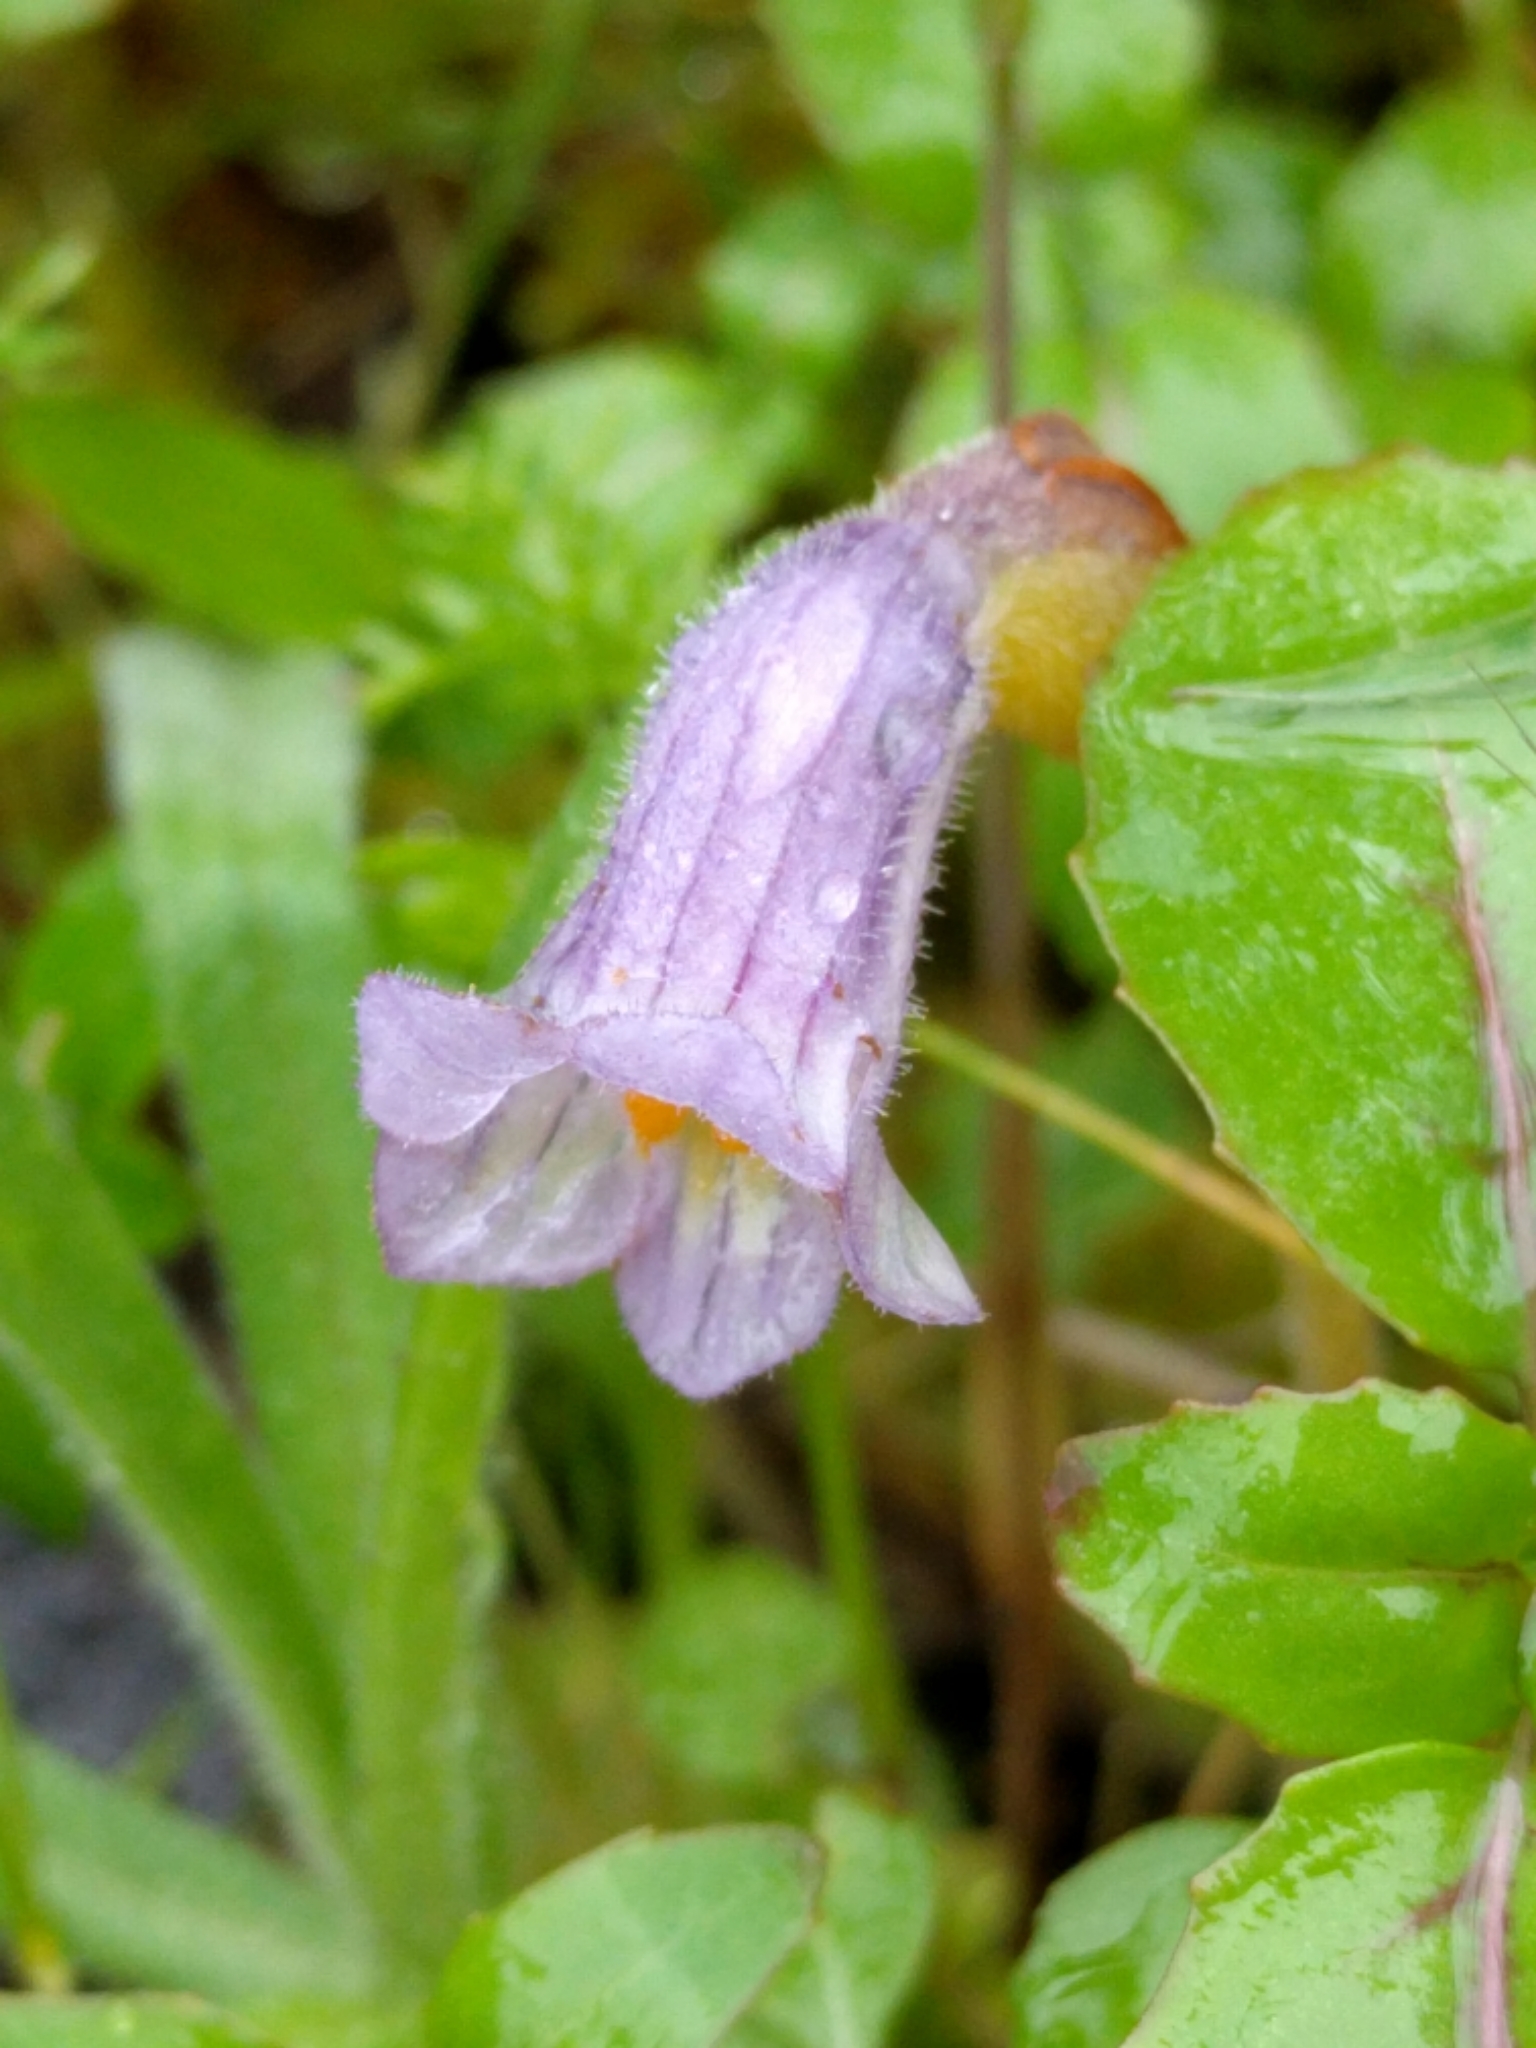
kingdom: Plantae
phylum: Tracheophyta
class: Magnoliopsida
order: Lamiales
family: Orobanchaceae
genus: Aphyllon
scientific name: Aphyllon uniflorum
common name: One-flowered broomrape
